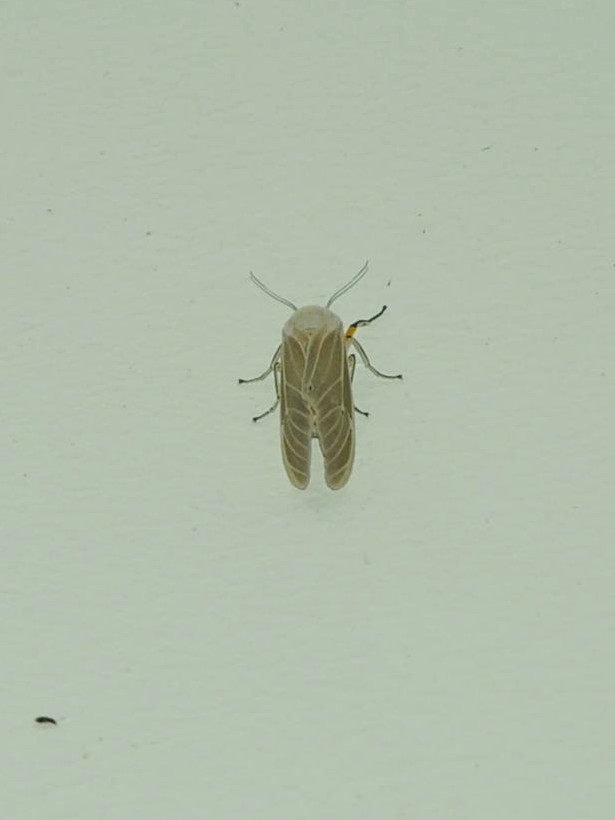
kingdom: Animalia
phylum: Arthropoda
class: Insecta
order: Lepidoptera
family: Erebidae
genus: Creatonotos
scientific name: Creatonotos transiens
